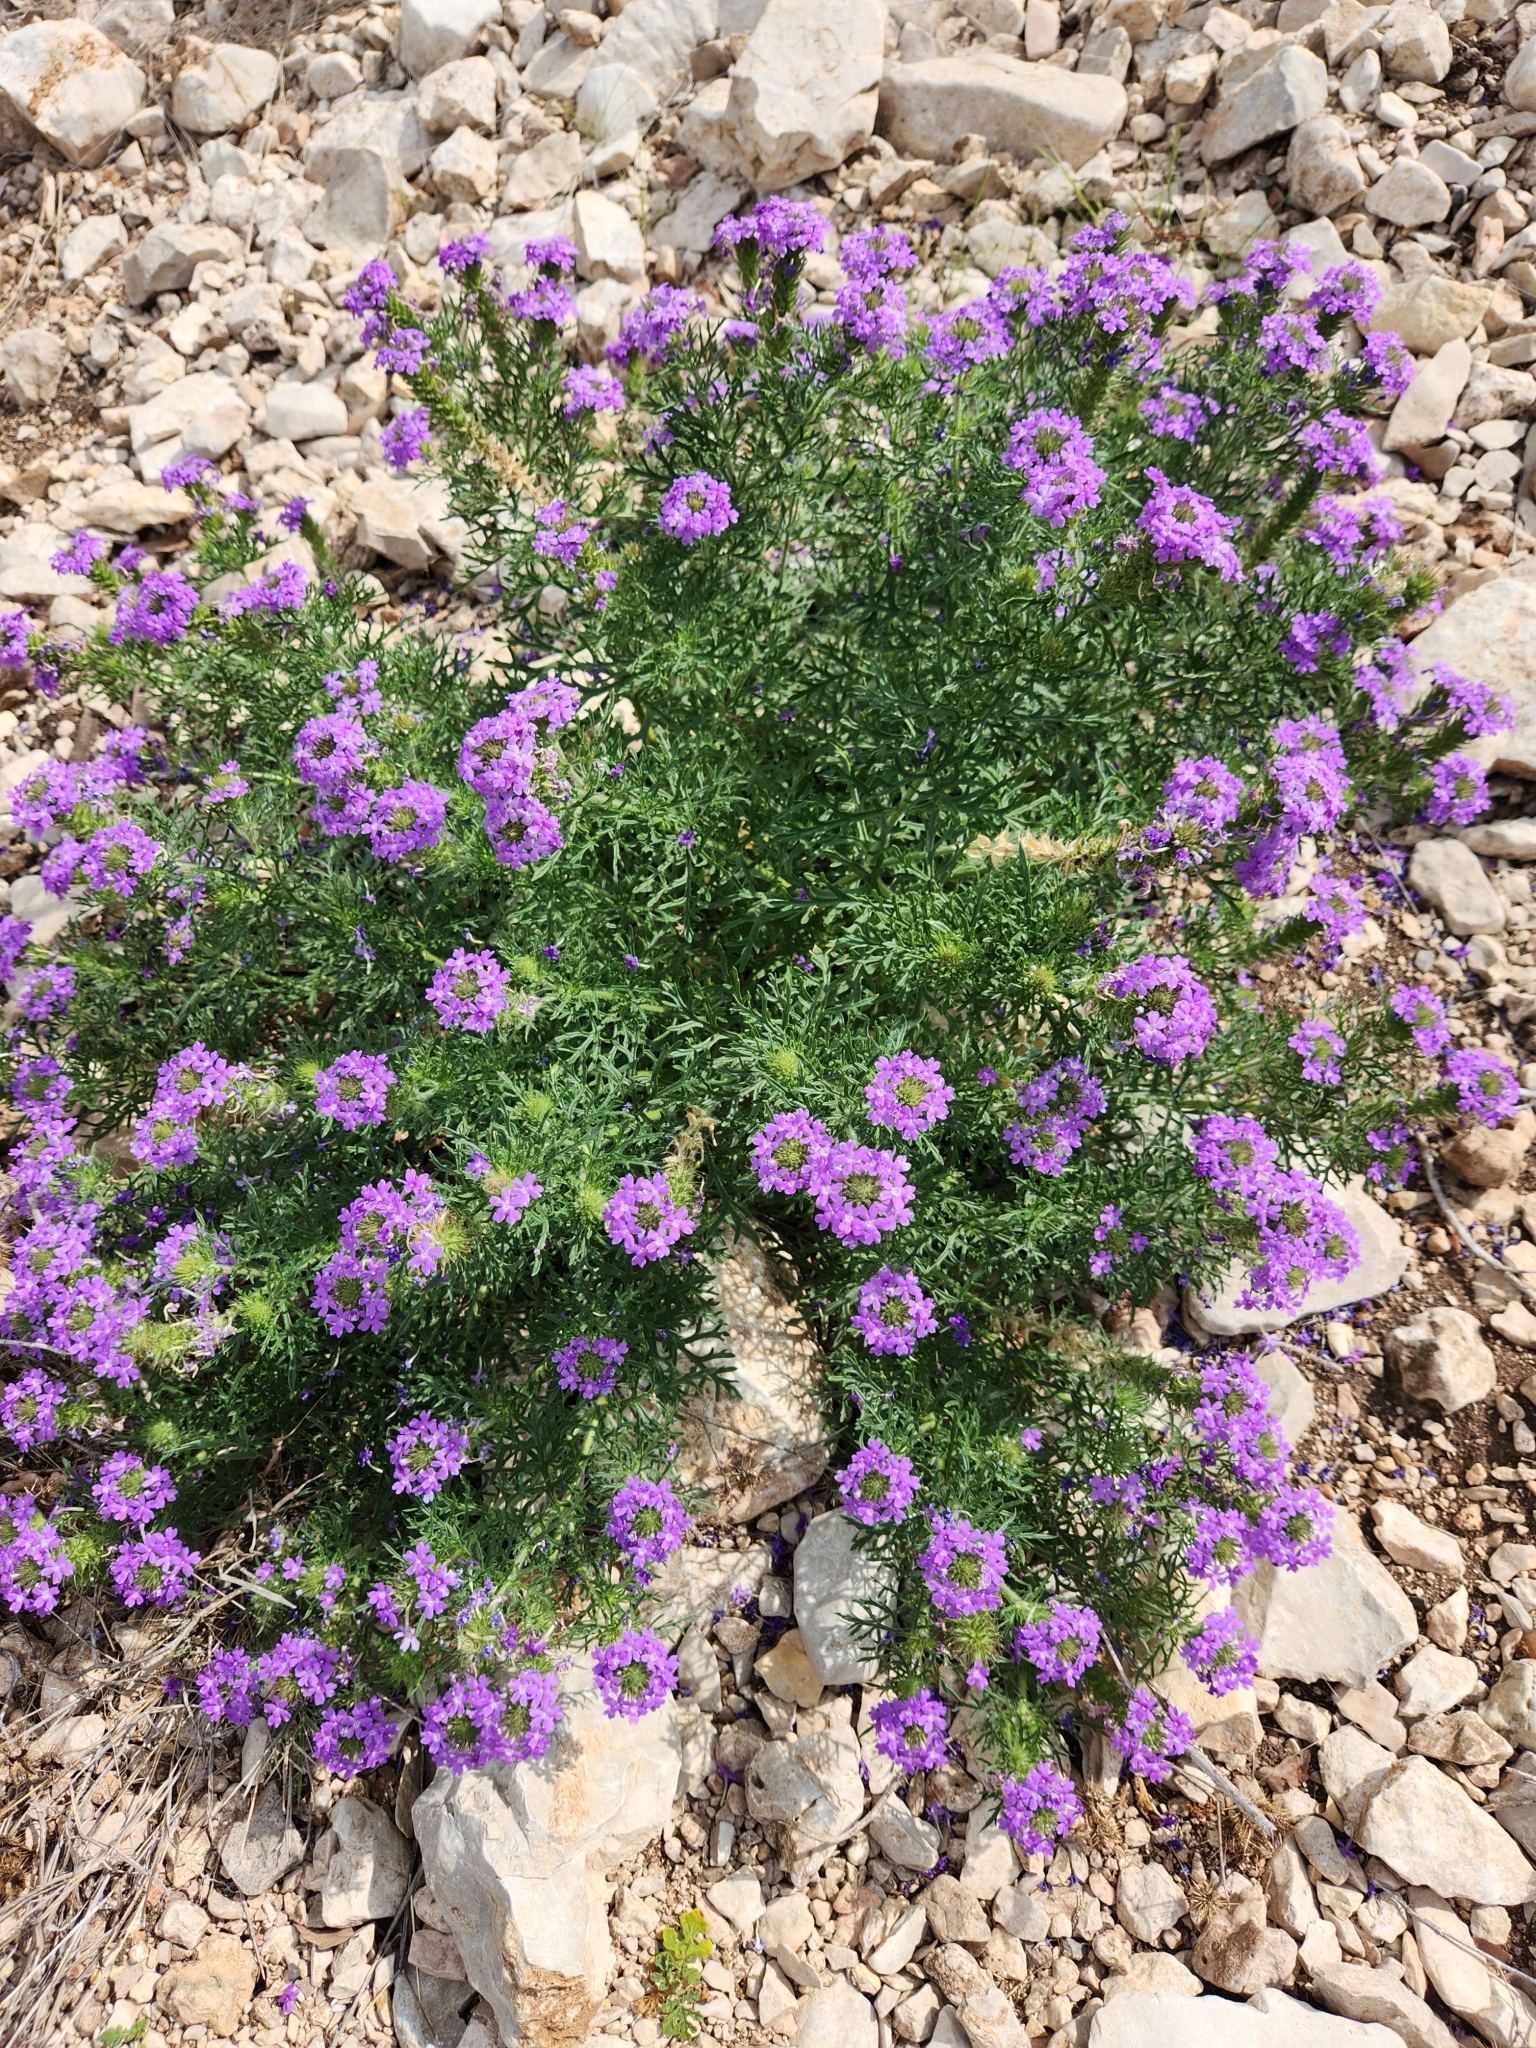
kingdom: Plantae
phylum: Tracheophyta
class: Magnoliopsida
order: Lamiales
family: Verbenaceae
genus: Verbena
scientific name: Verbena bipinnatifida
